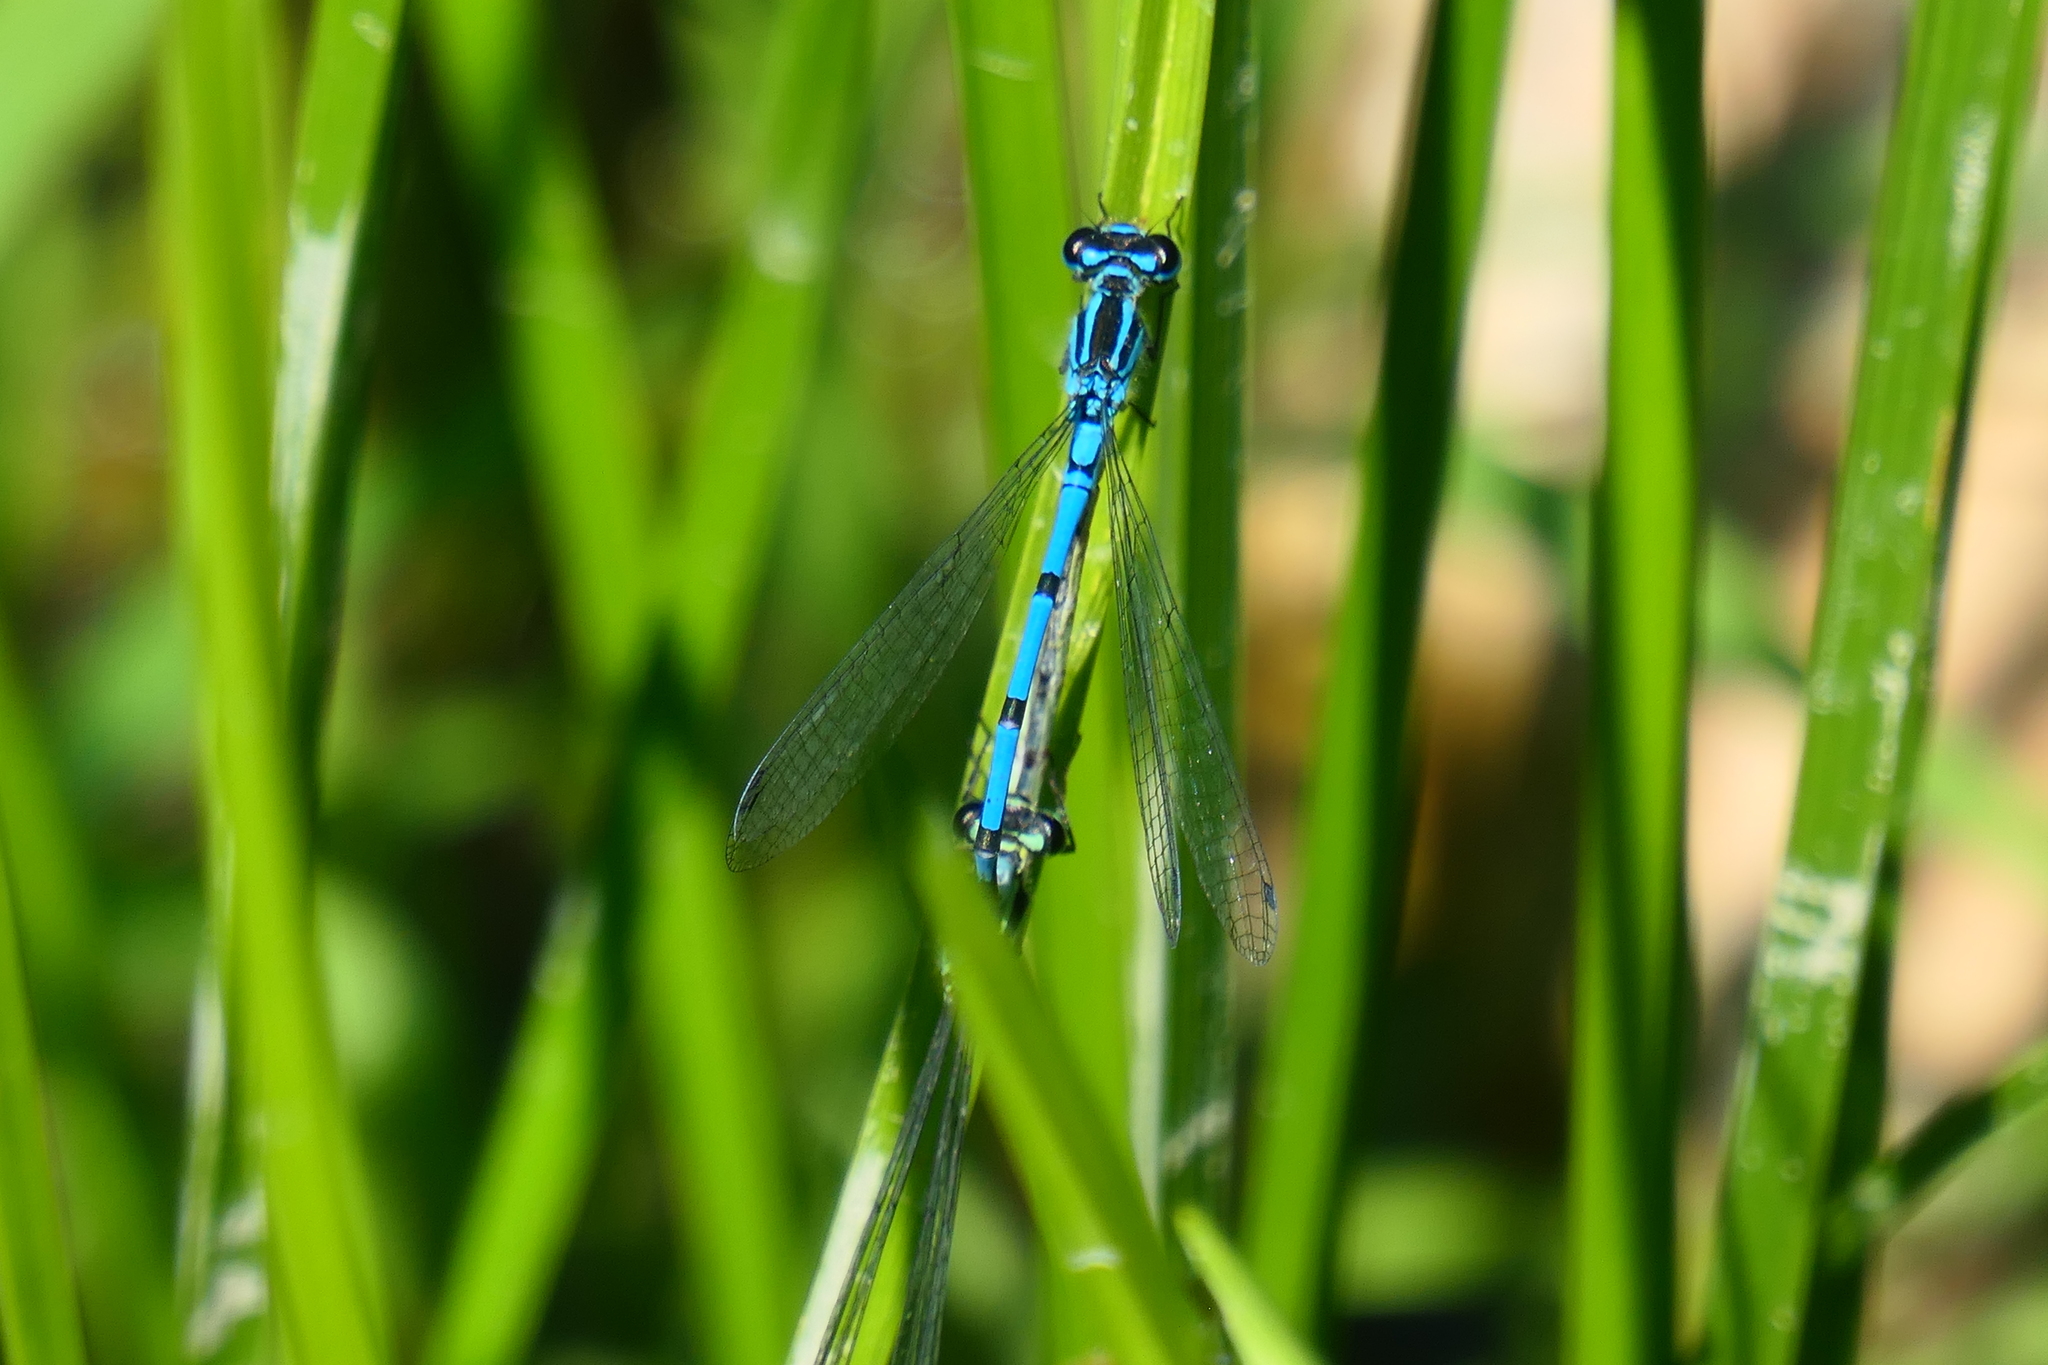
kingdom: Animalia
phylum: Arthropoda
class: Insecta
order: Odonata
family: Coenagrionidae
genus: Coenagrion
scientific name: Coenagrion puella
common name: Azure damselfly
